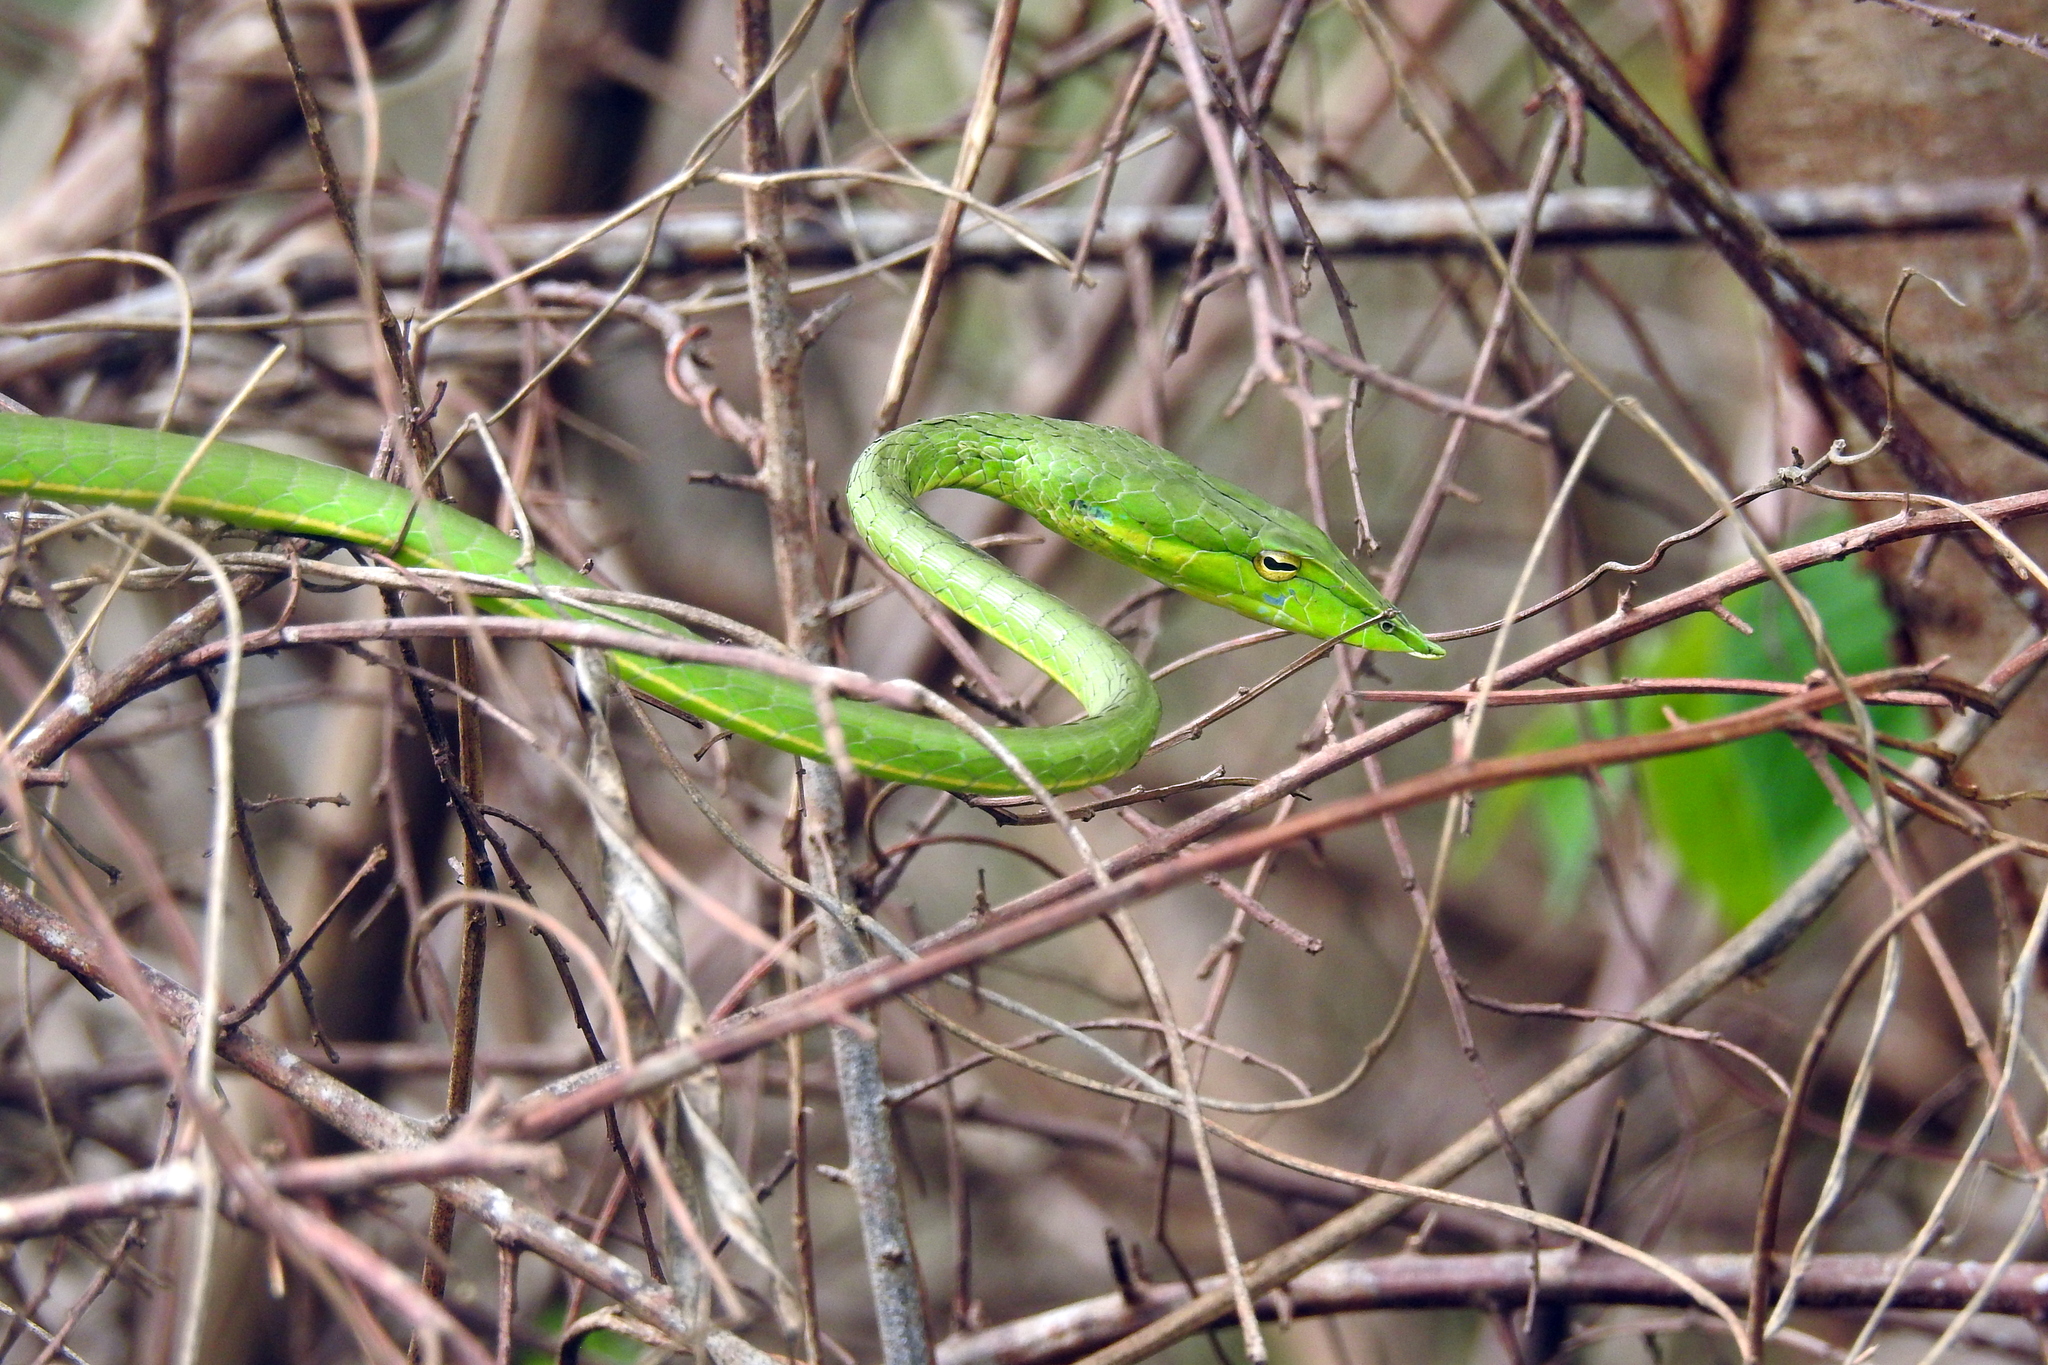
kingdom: Animalia
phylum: Chordata
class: Squamata
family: Colubridae
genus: Ahaetulla
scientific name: Ahaetulla oxyrhyncha
